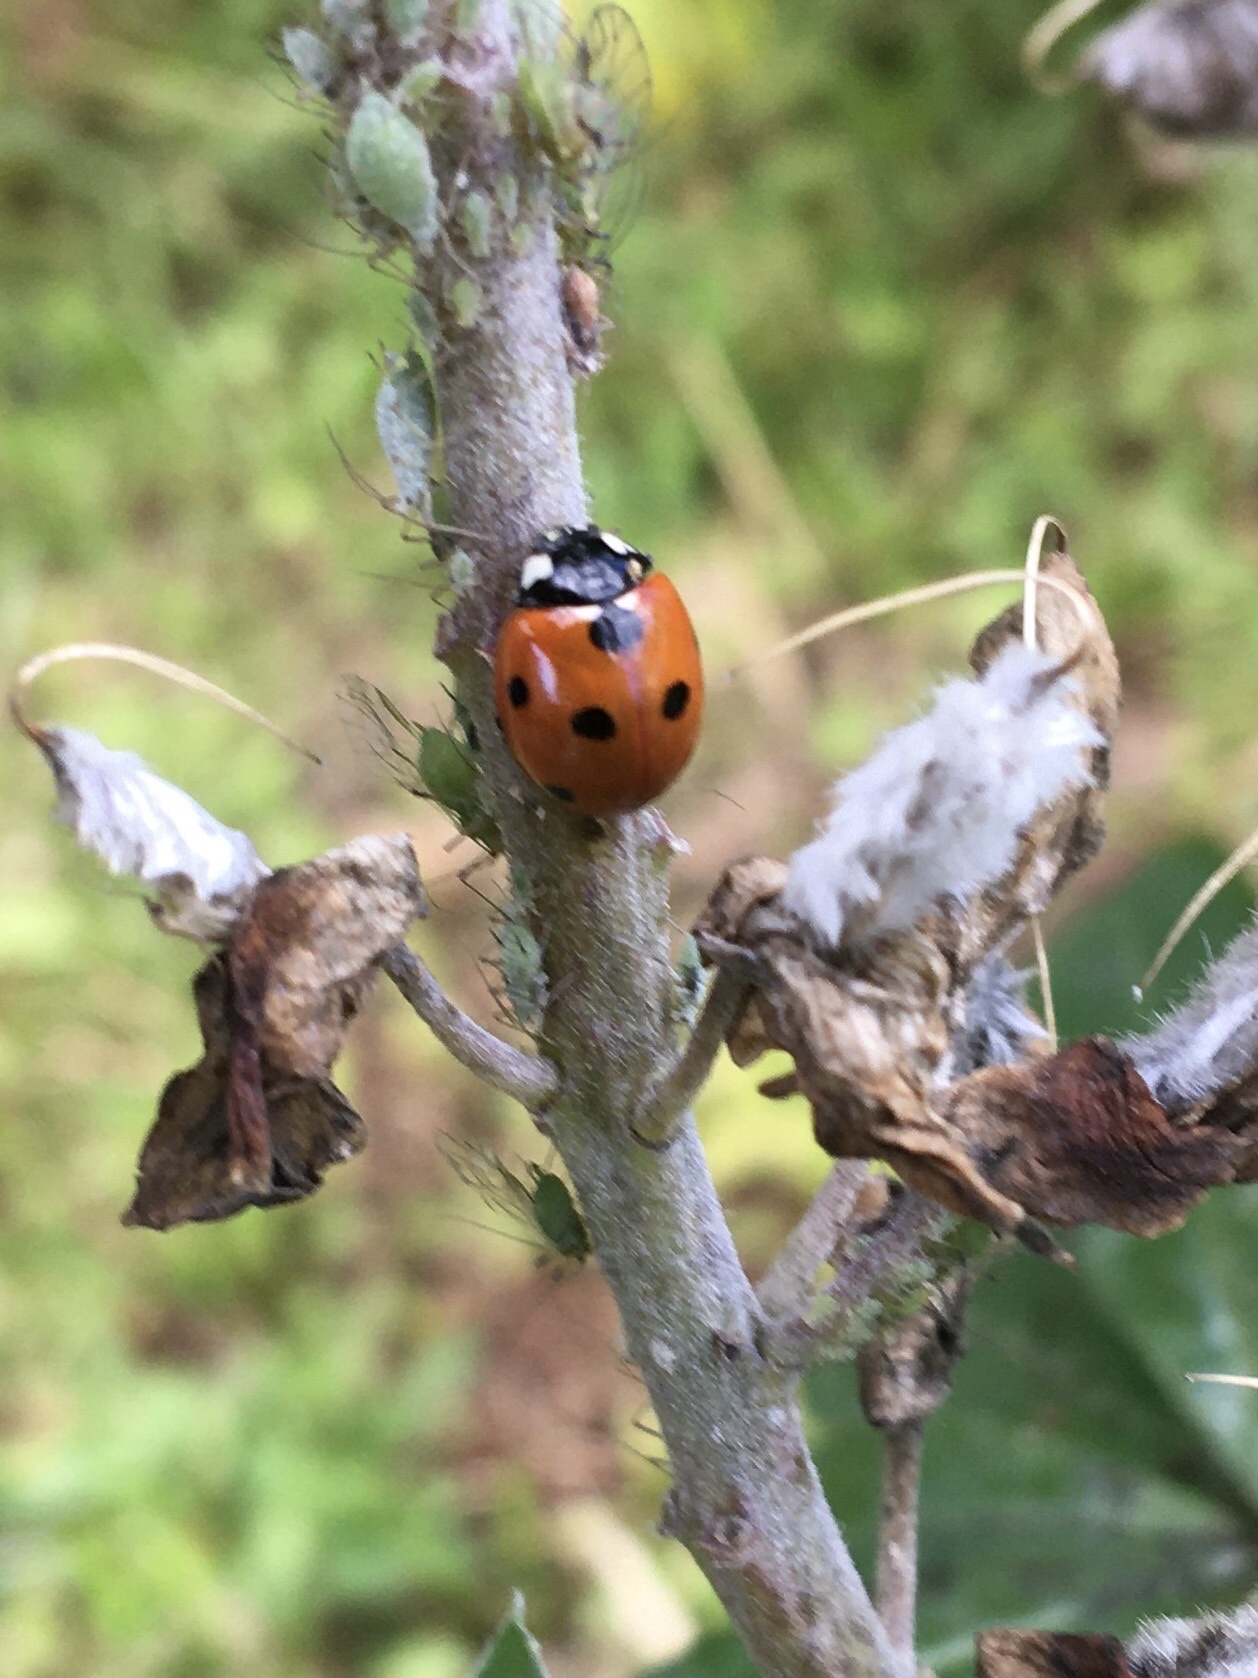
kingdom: Animalia
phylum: Arthropoda
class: Insecta
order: Coleoptera
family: Coccinellidae
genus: Coccinella
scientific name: Coccinella septempunctata
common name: Sevenspotted lady beetle
